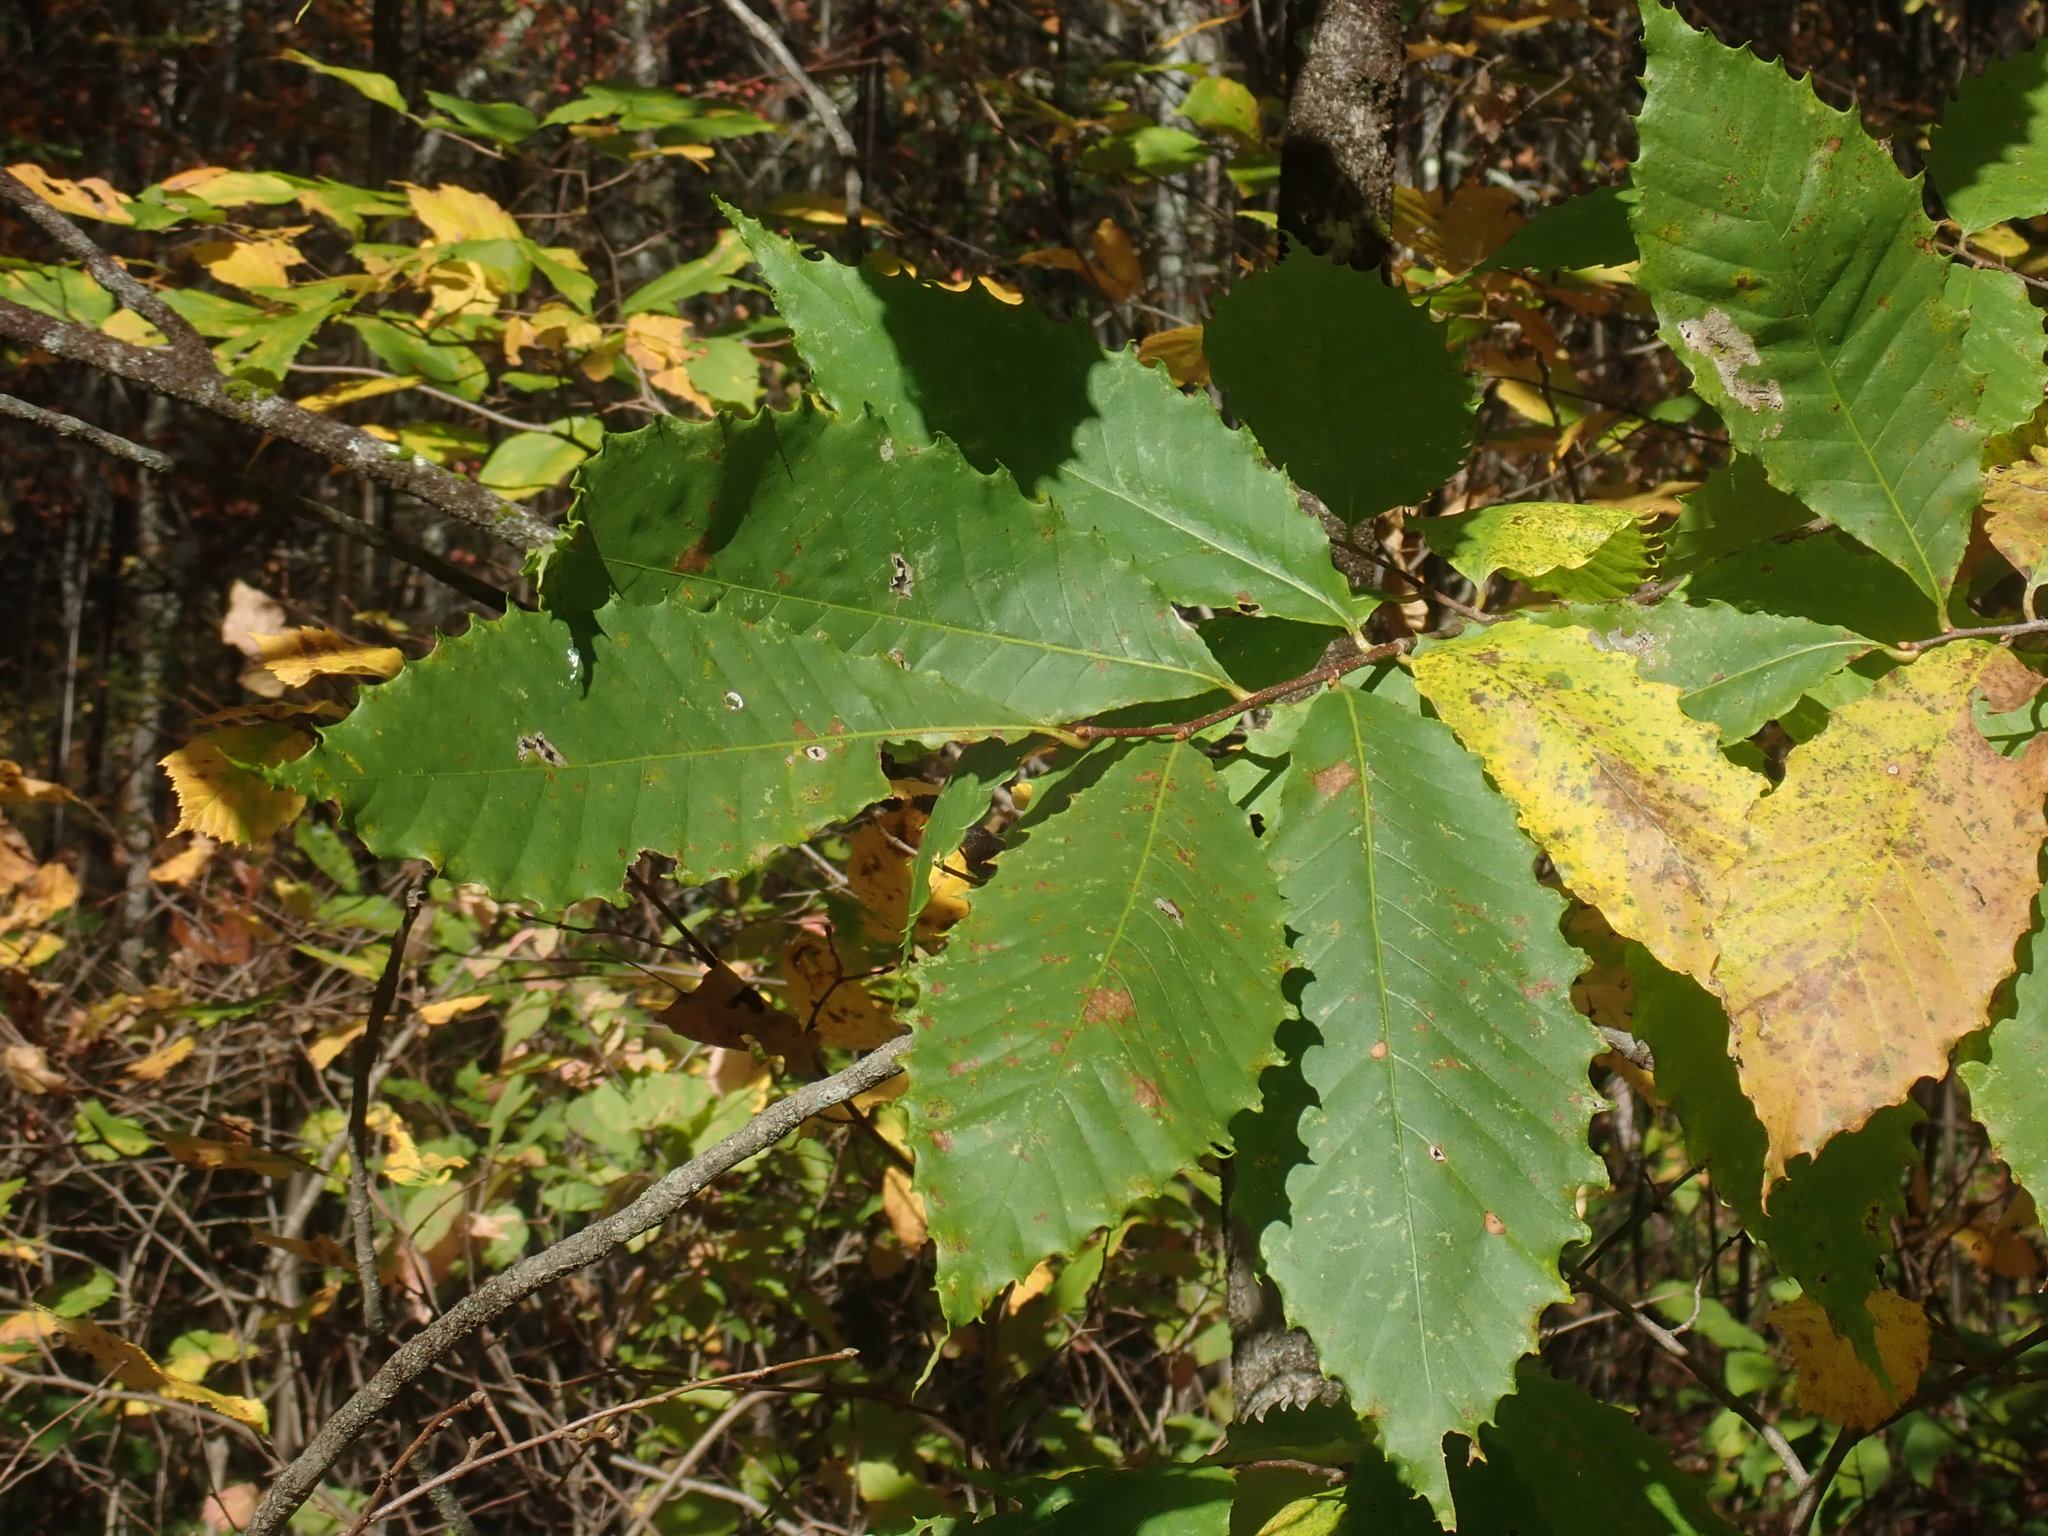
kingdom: Plantae
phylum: Tracheophyta
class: Magnoliopsida
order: Fagales
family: Fagaceae
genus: Castanea
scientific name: Castanea dentata
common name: American chestnut
